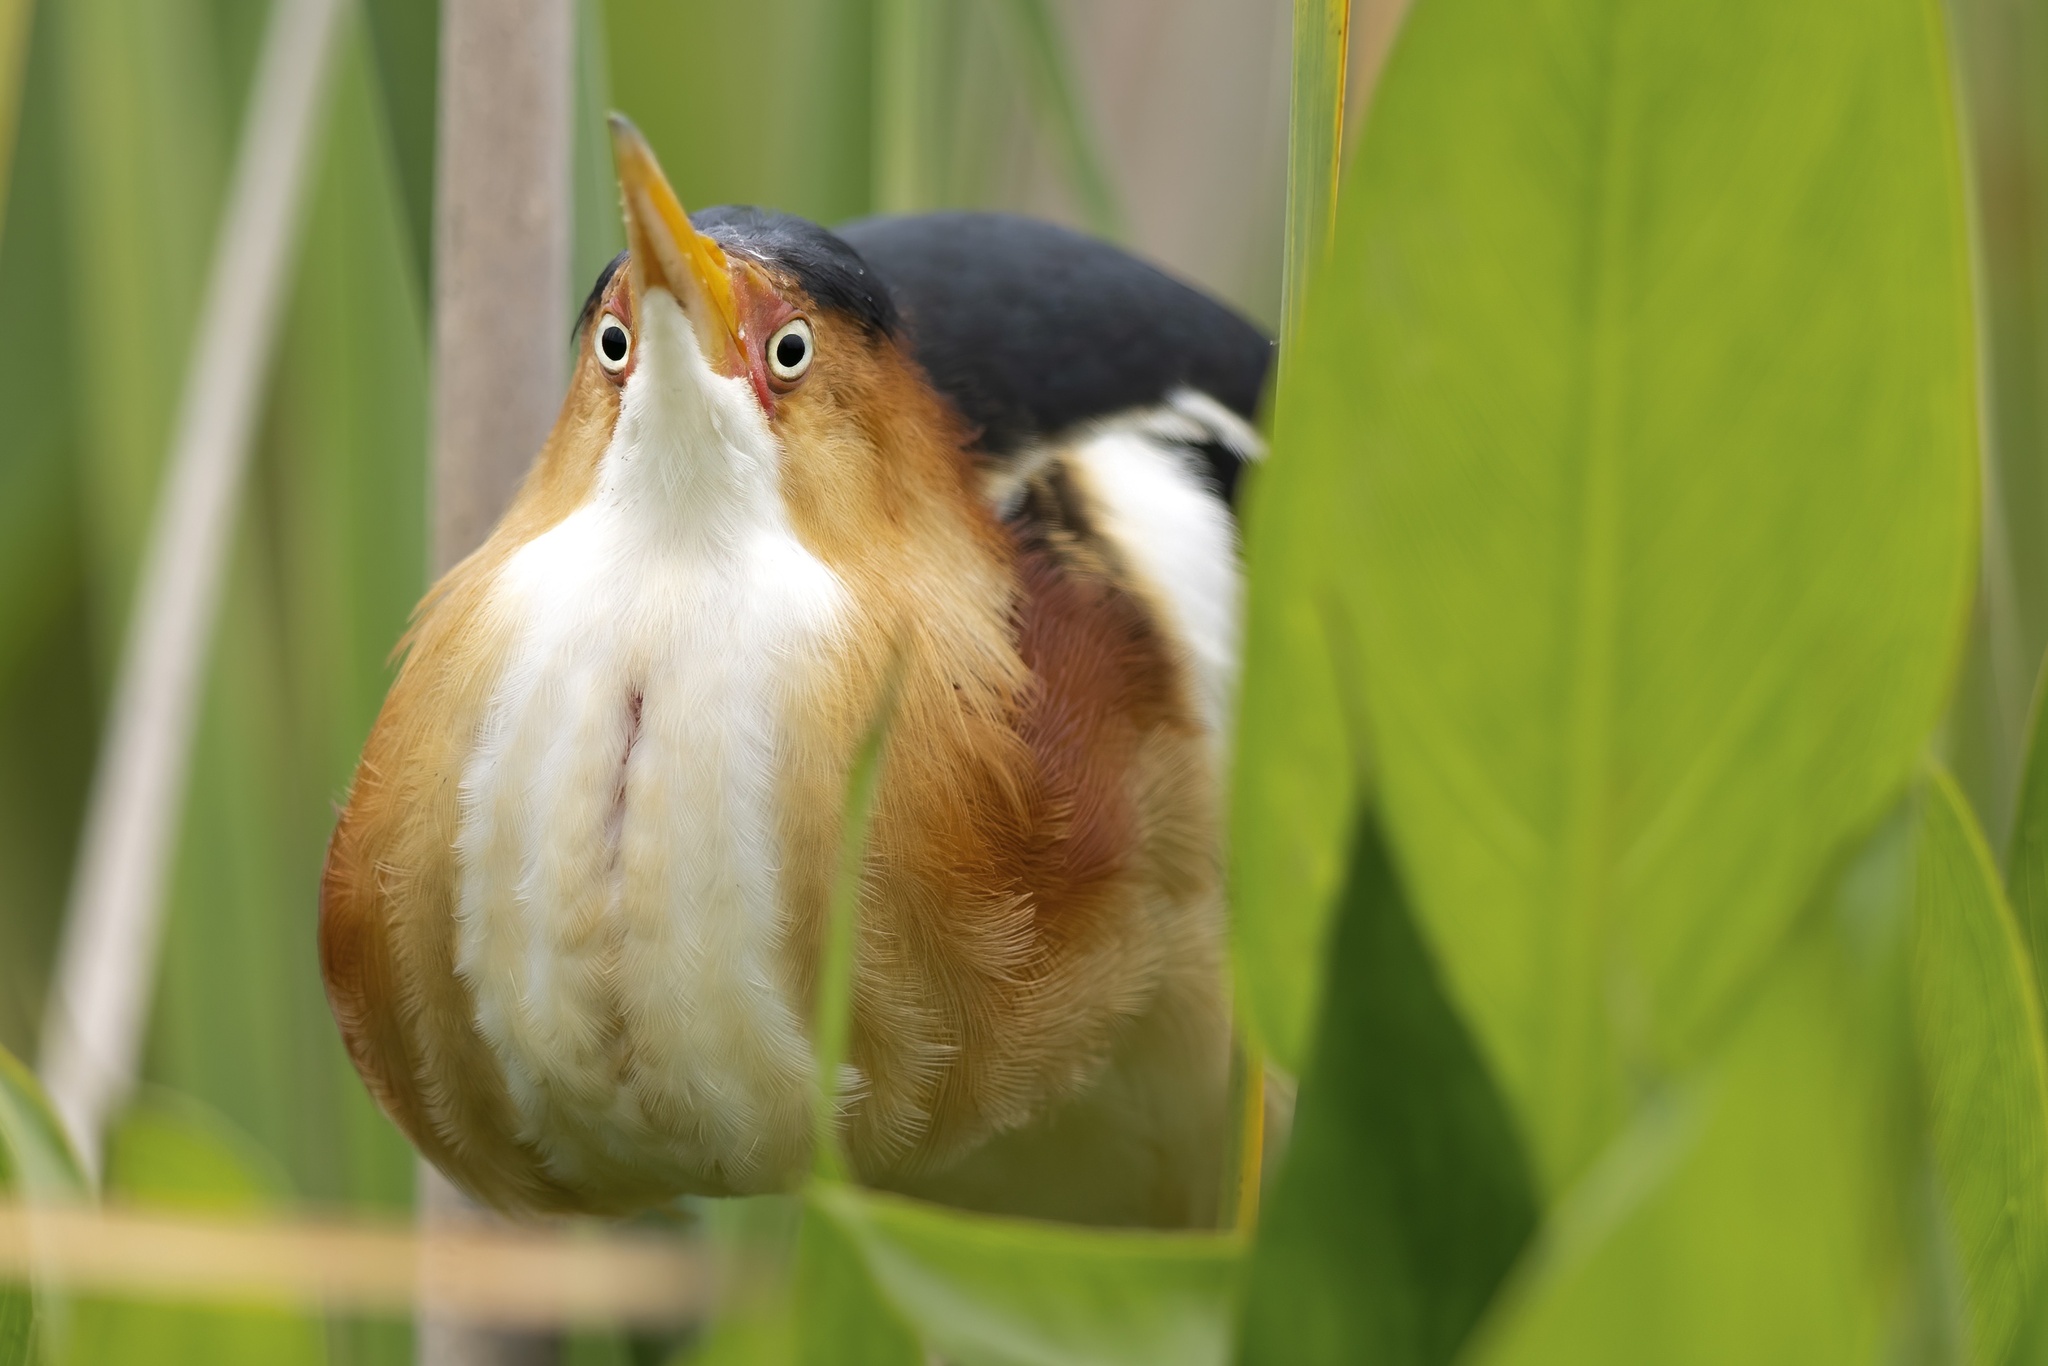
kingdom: Animalia
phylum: Chordata
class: Aves
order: Pelecaniformes
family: Ardeidae
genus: Ixobrychus
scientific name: Ixobrychus exilis
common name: Least bittern
